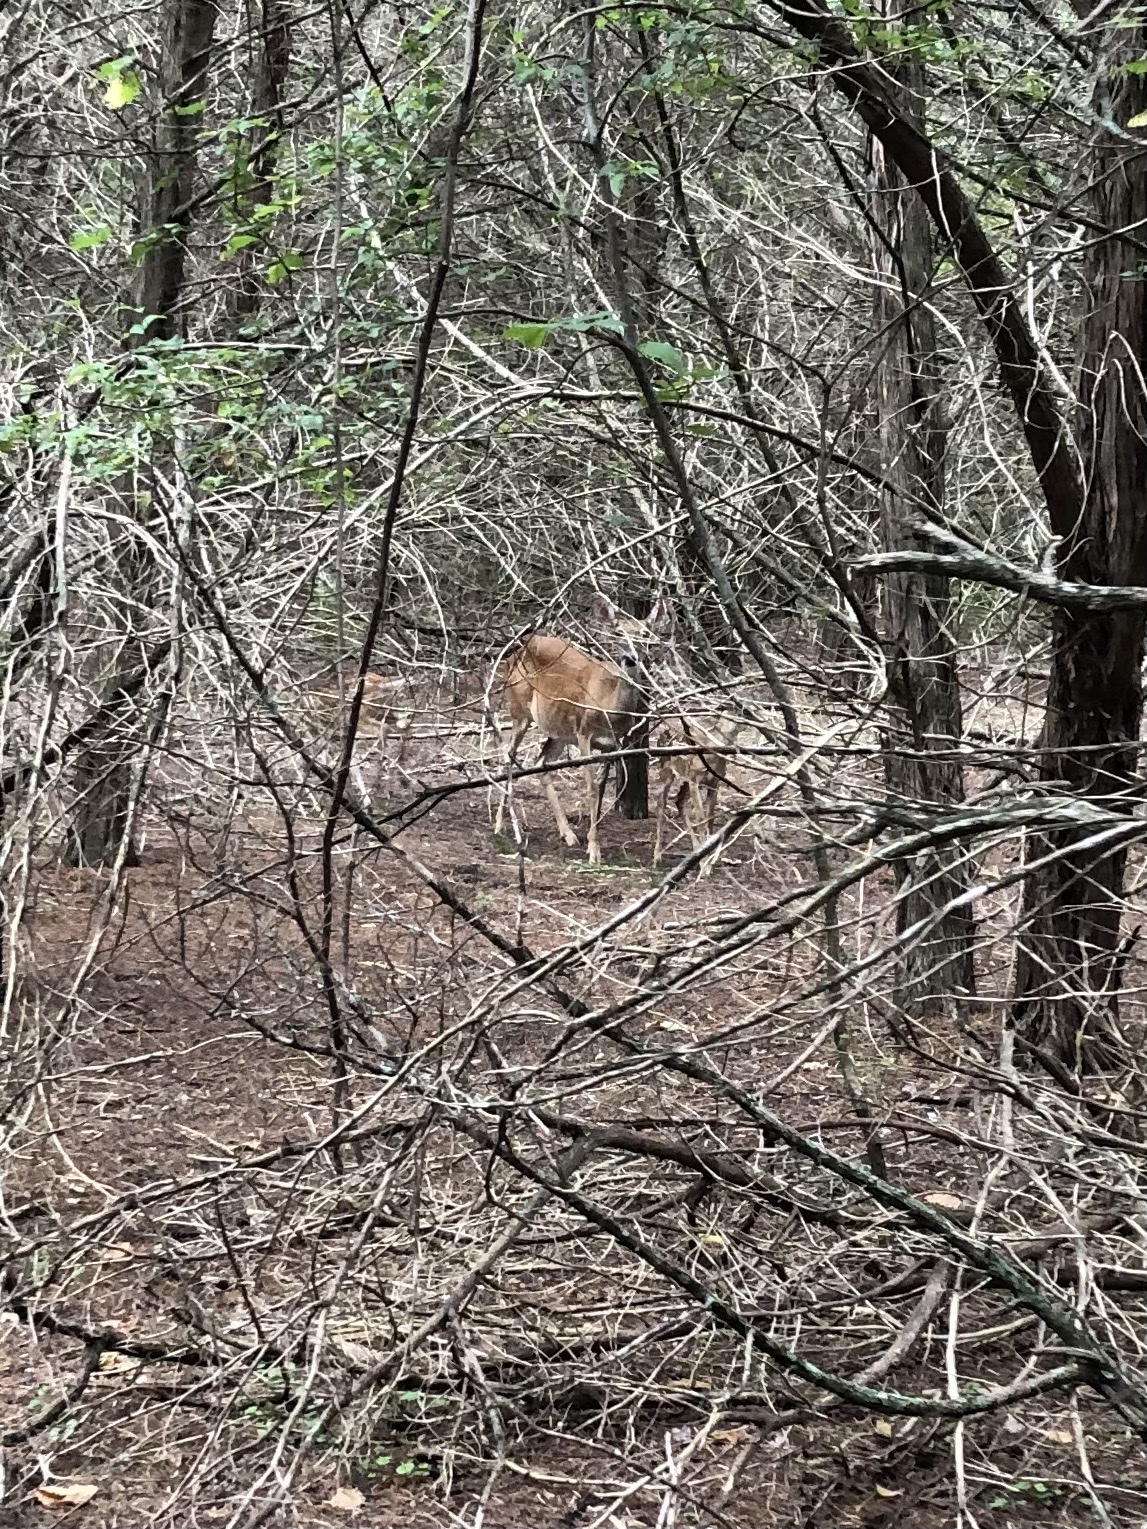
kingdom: Animalia
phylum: Chordata
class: Mammalia
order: Artiodactyla
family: Cervidae
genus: Odocoileus
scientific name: Odocoileus virginianus
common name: White-tailed deer
